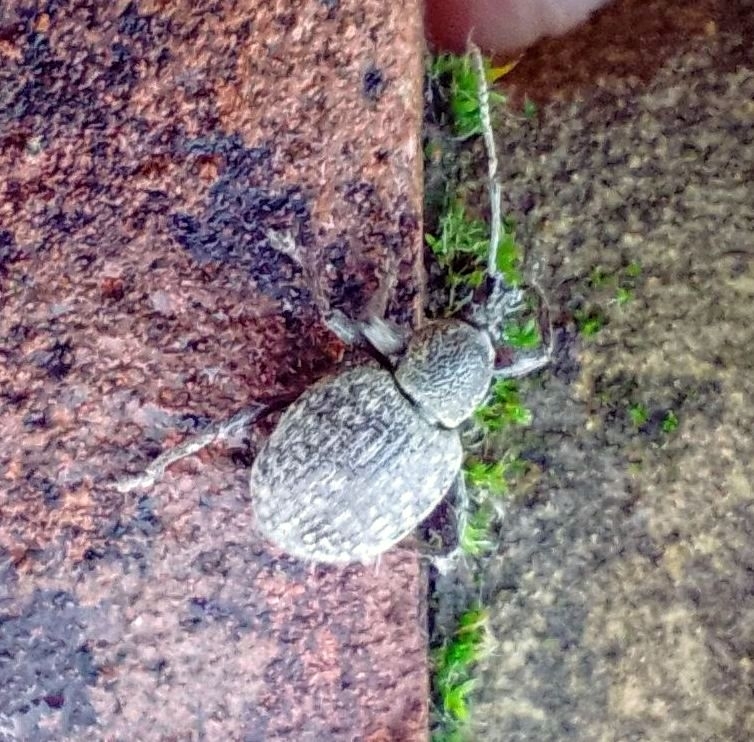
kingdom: Animalia
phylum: Arthropoda
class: Insecta
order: Coleoptera
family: Curculionidae
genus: Otiorhynchus
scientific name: Otiorhynchus armadillo
